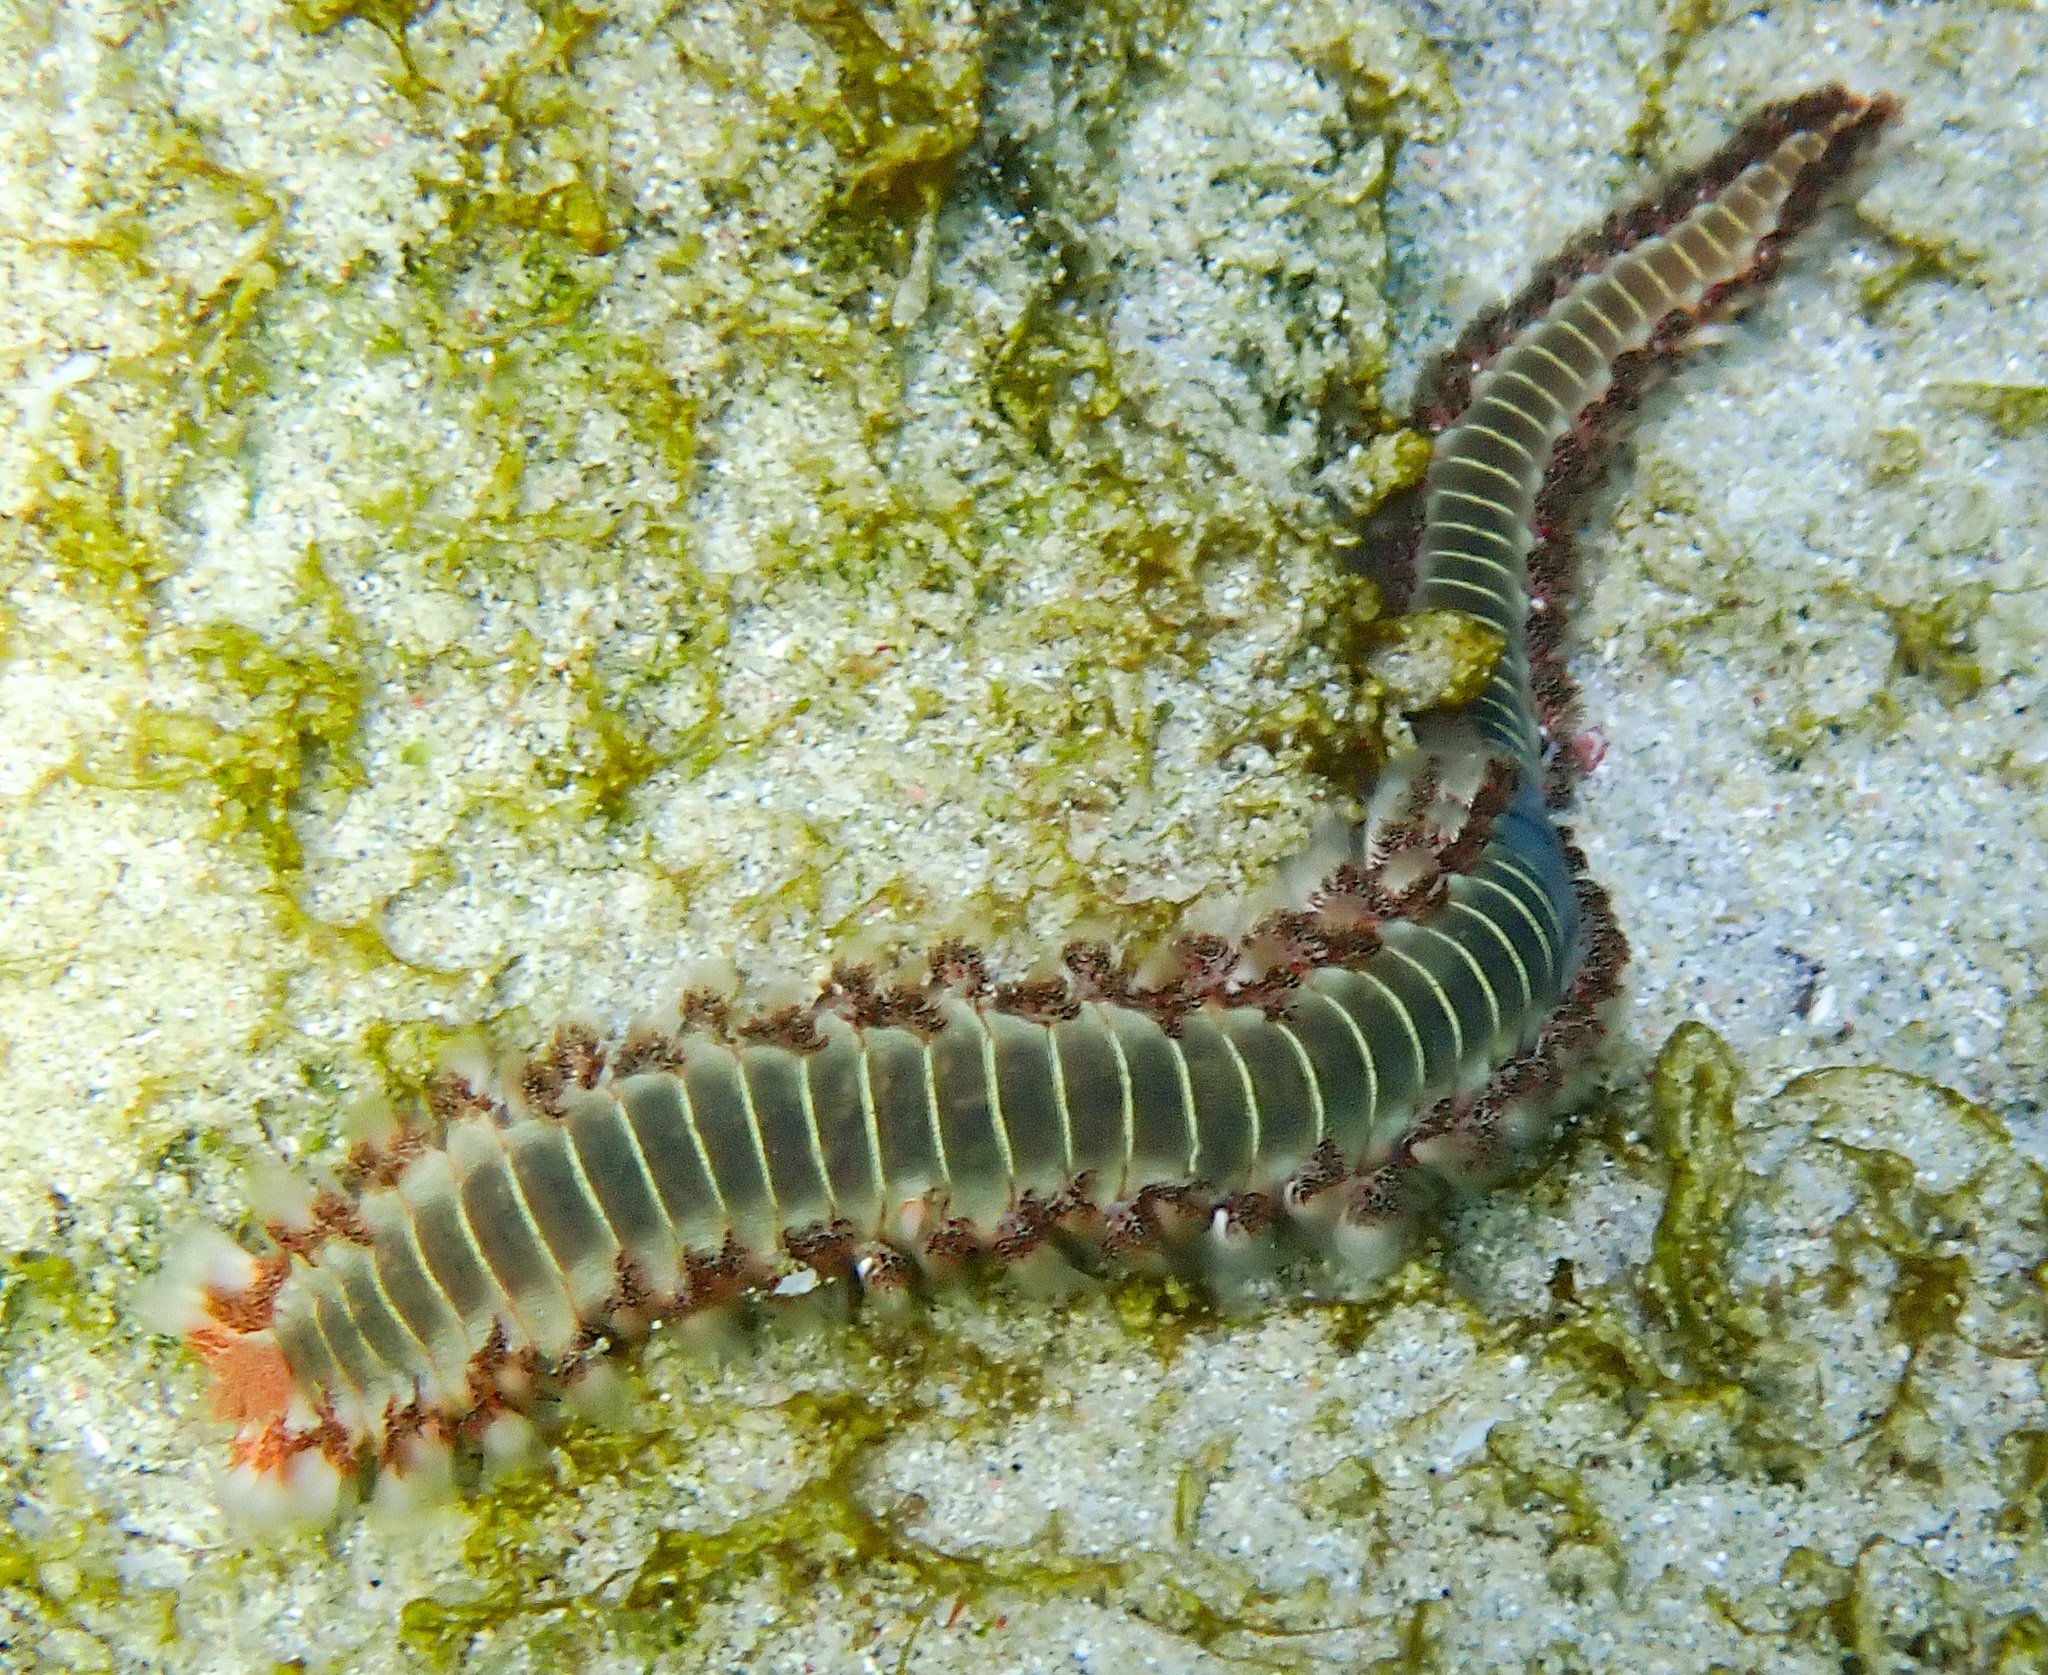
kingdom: Animalia
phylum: Annelida
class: Polychaeta
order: Amphinomida
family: Amphinomidae
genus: Hermodice
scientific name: Hermodice carunculata
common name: Bearded fireworm
